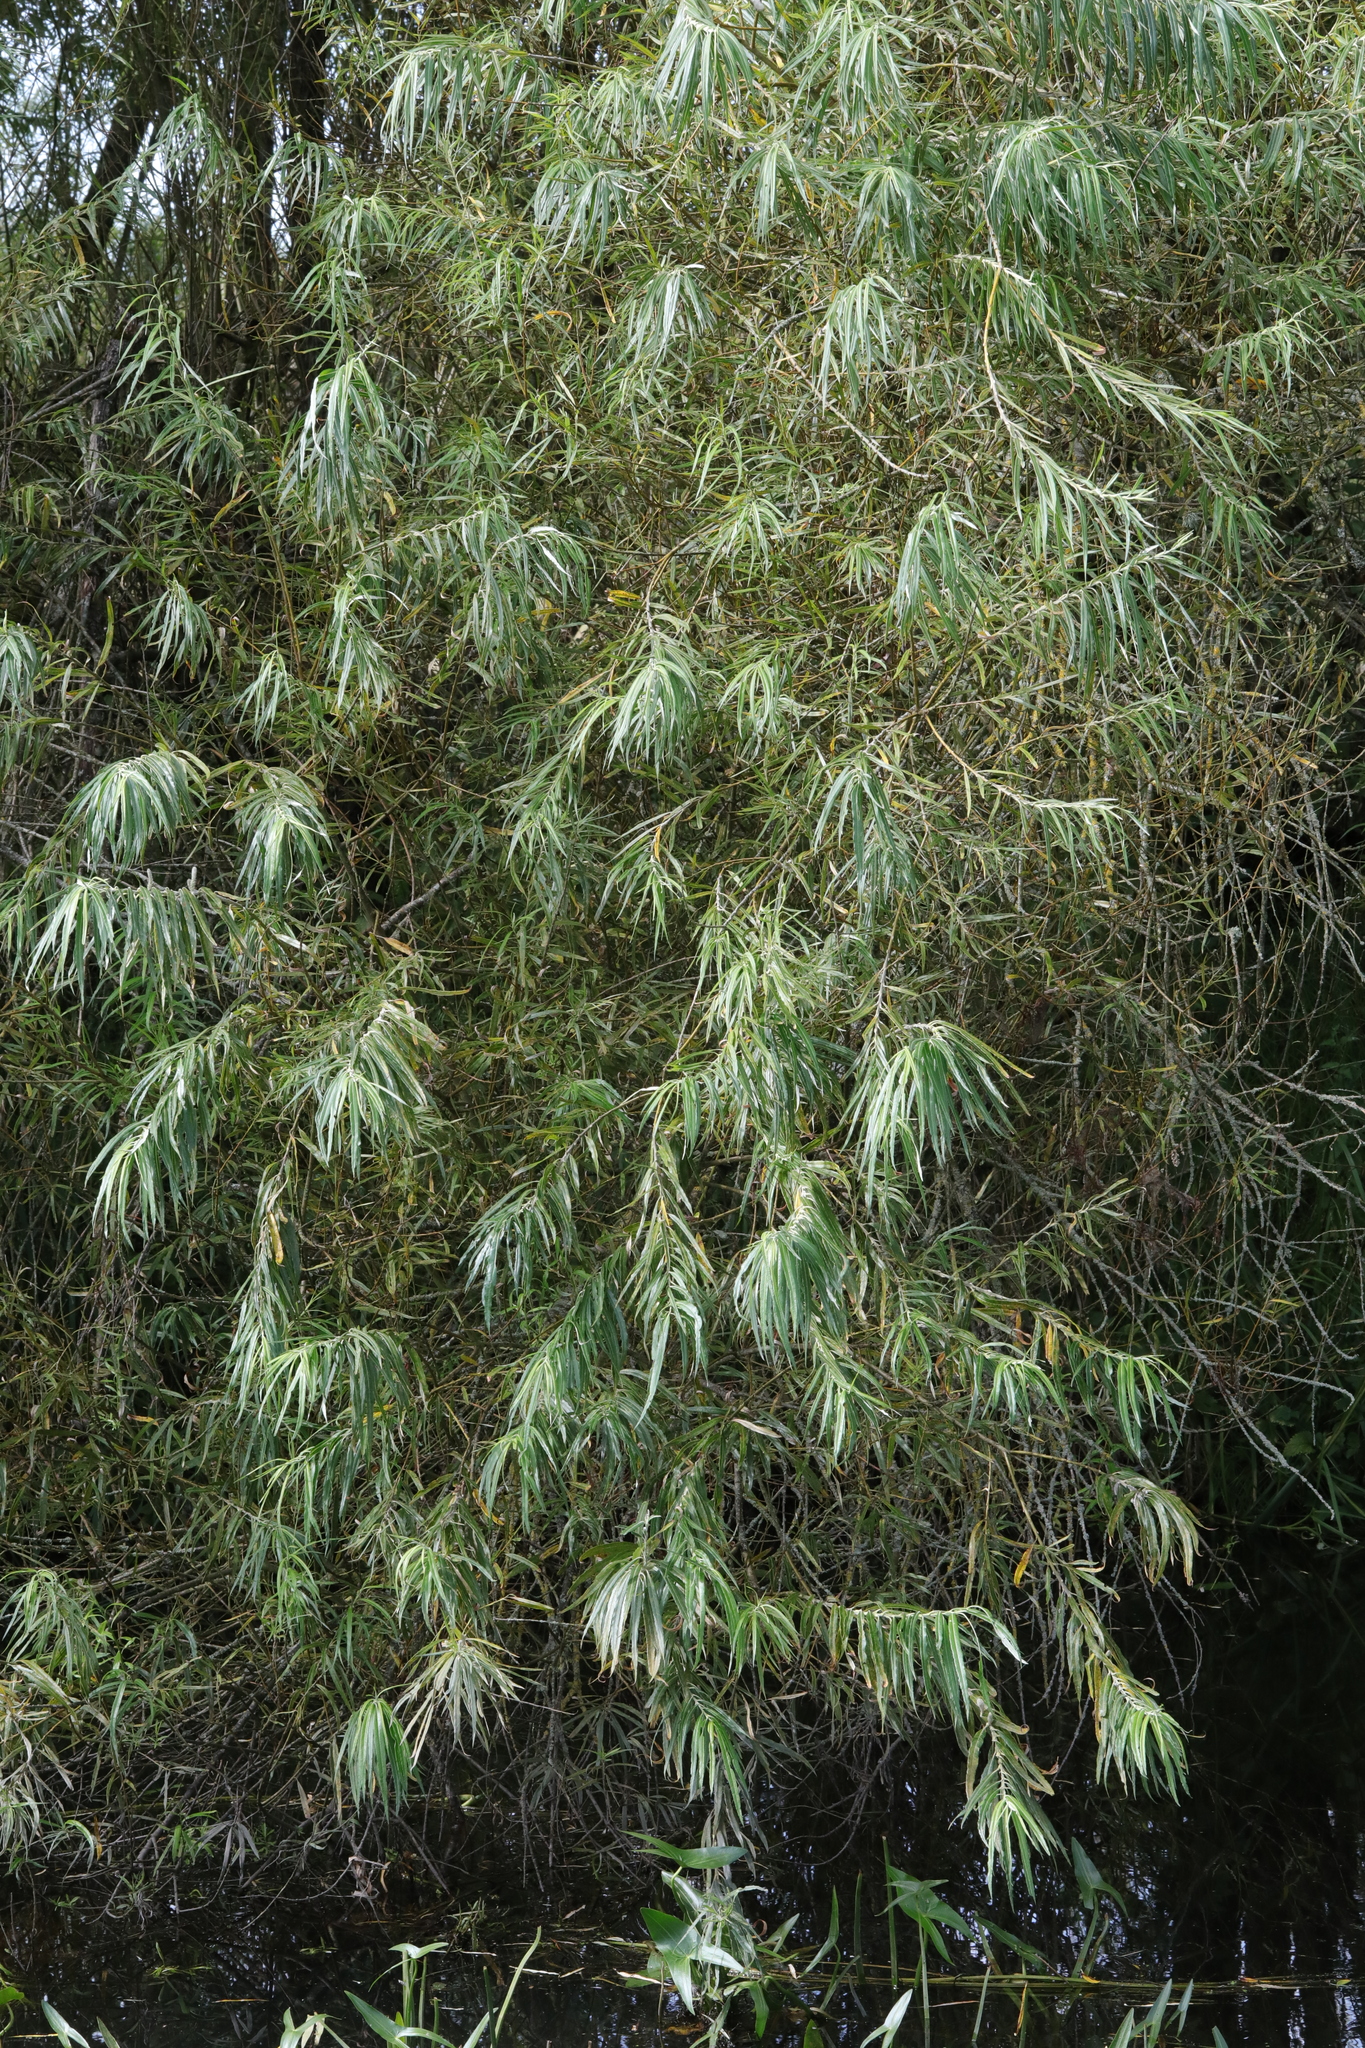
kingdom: Plantae
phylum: Tracheophyta
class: Magnoliopsida
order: Malpighiales
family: Salicaceae
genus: Salix
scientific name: Salix viminalis
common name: Osier
